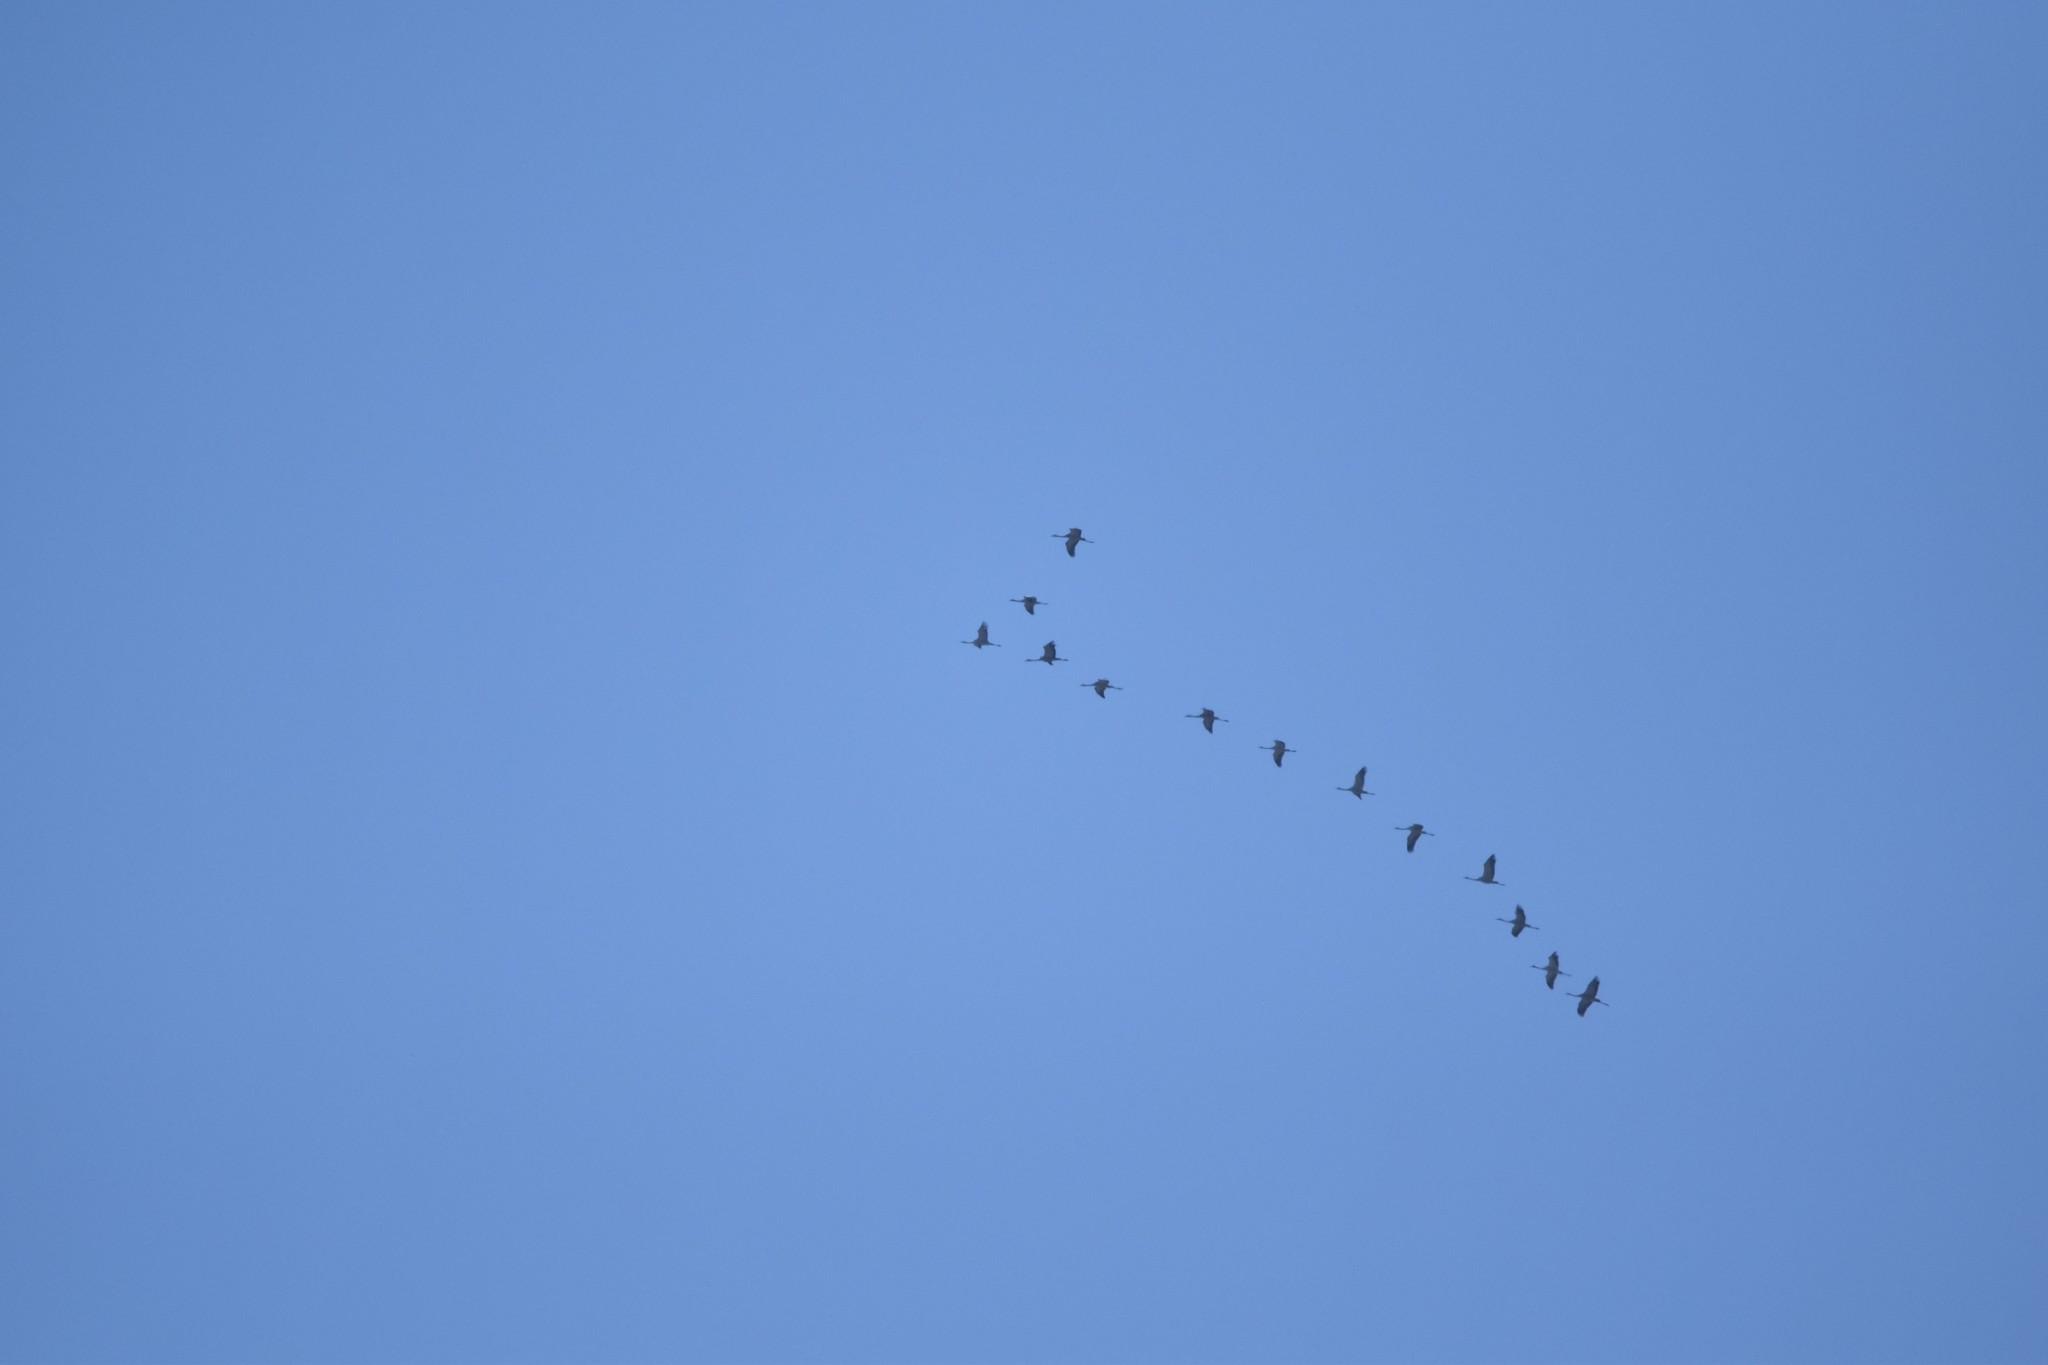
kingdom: Animalia
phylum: Chordata
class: Aves
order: Gruiformes
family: Gruidae
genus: Grus
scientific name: Grus grus
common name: Common crane
